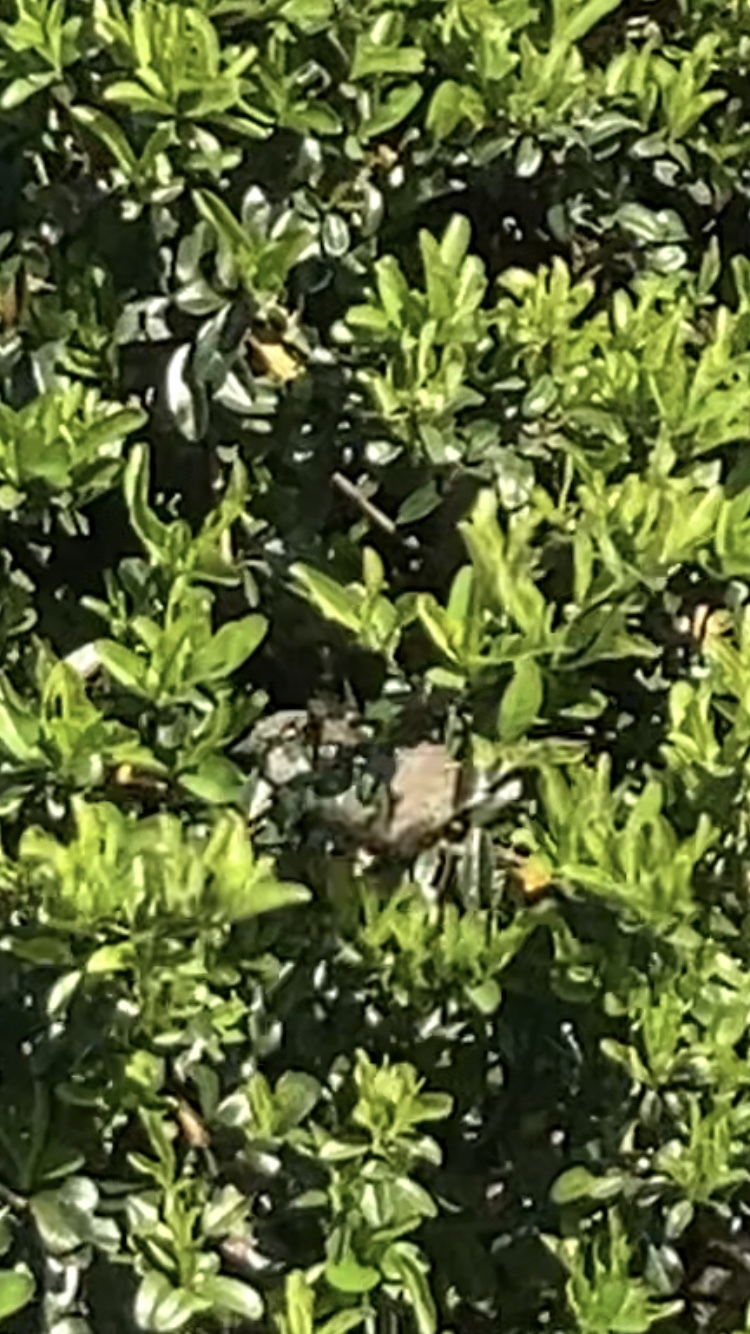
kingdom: Animalia
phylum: Chordata
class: Aves
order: Passeriformes
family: Passeridae
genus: Passer
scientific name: Passer domesticus
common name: House sparrow
